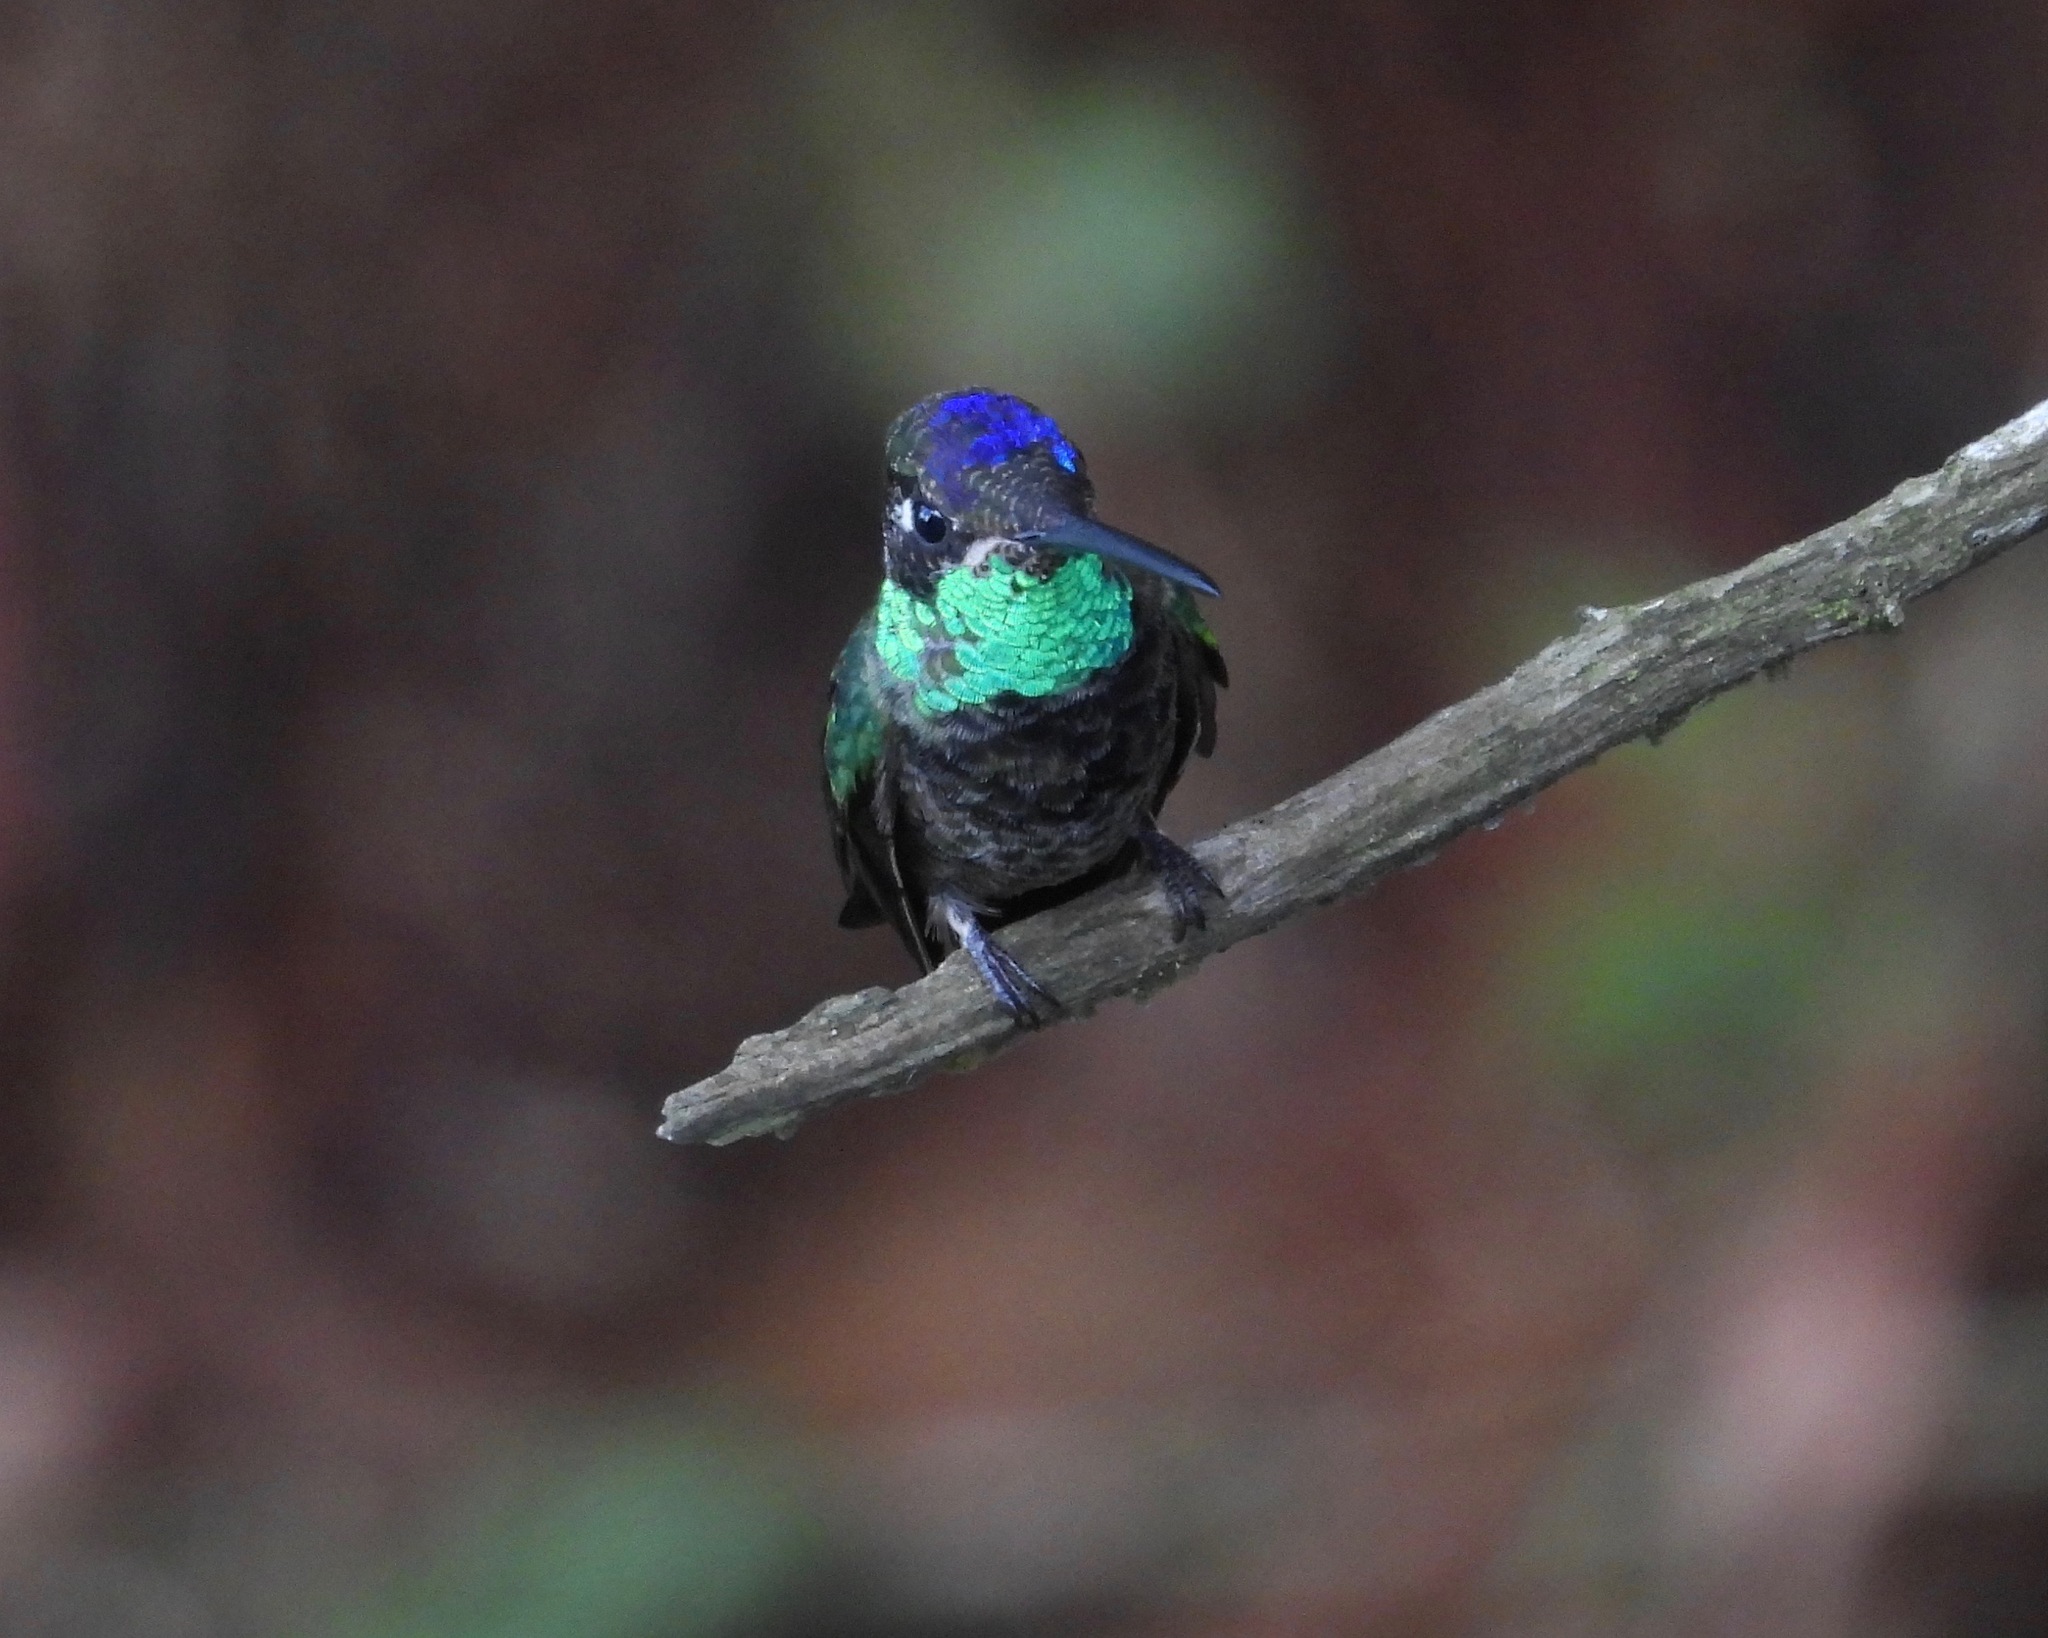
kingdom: Animalia
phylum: Chordata
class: Aves
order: Apodiformes
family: Trochilidae
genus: Eugenes
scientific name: Eugenes fulgens
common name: Magnificent hummingbird
